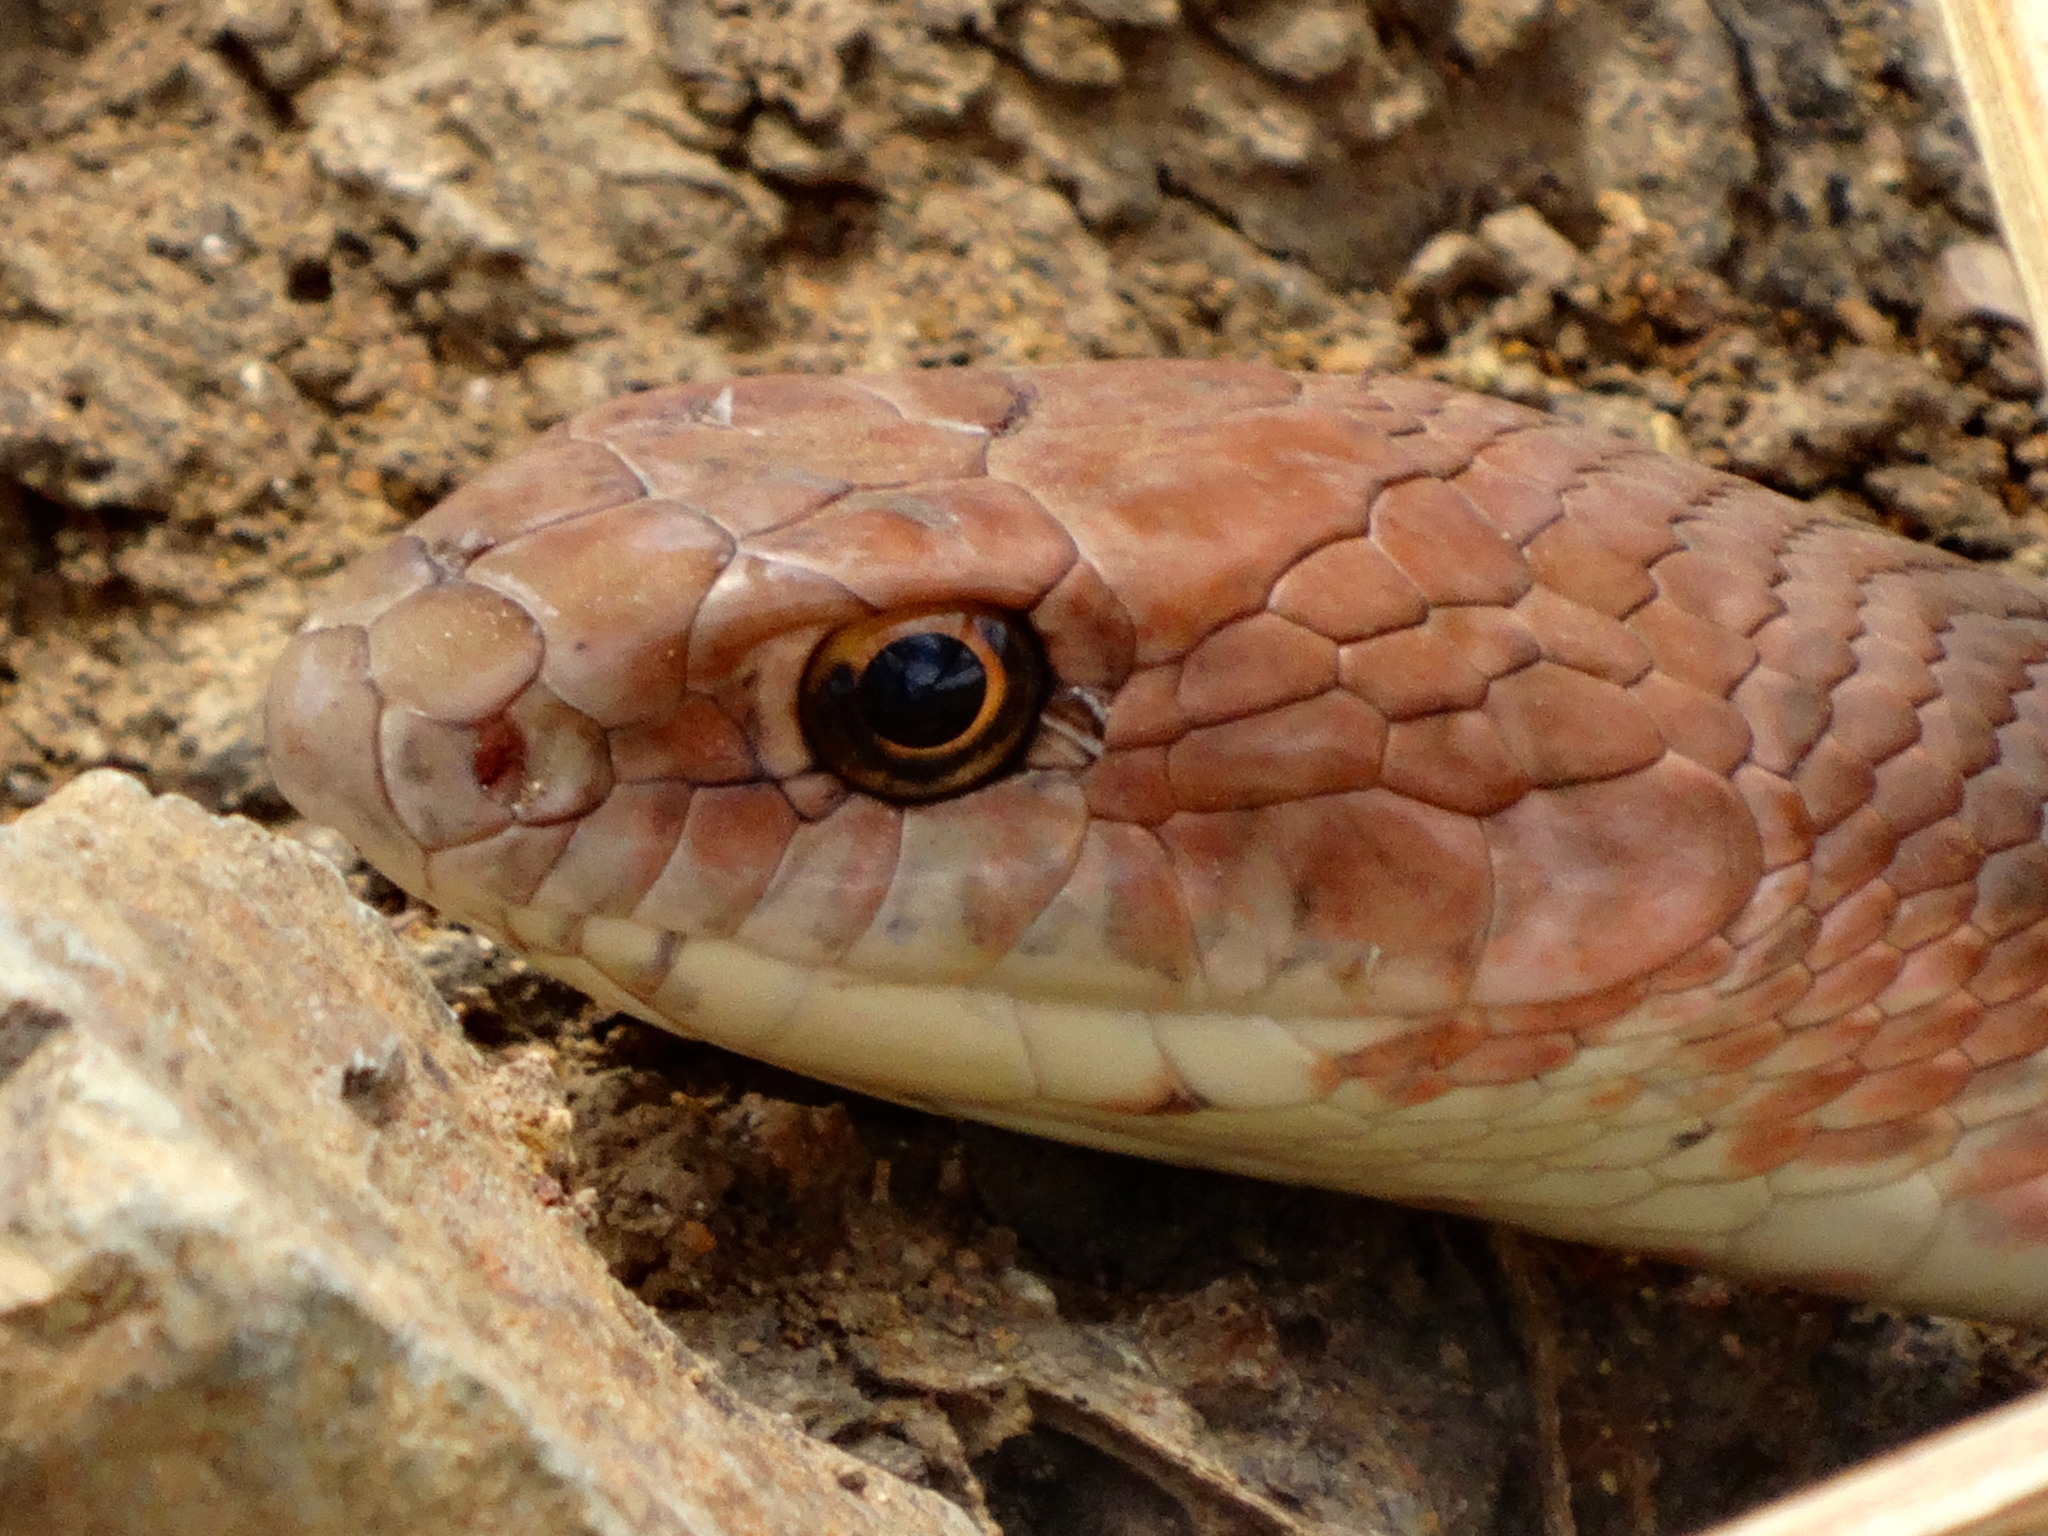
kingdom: Animalia
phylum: Chordata
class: Squamata
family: Colubridae
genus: Masticophis
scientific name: Masticophis mentovarius
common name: Neotropical whip snake
